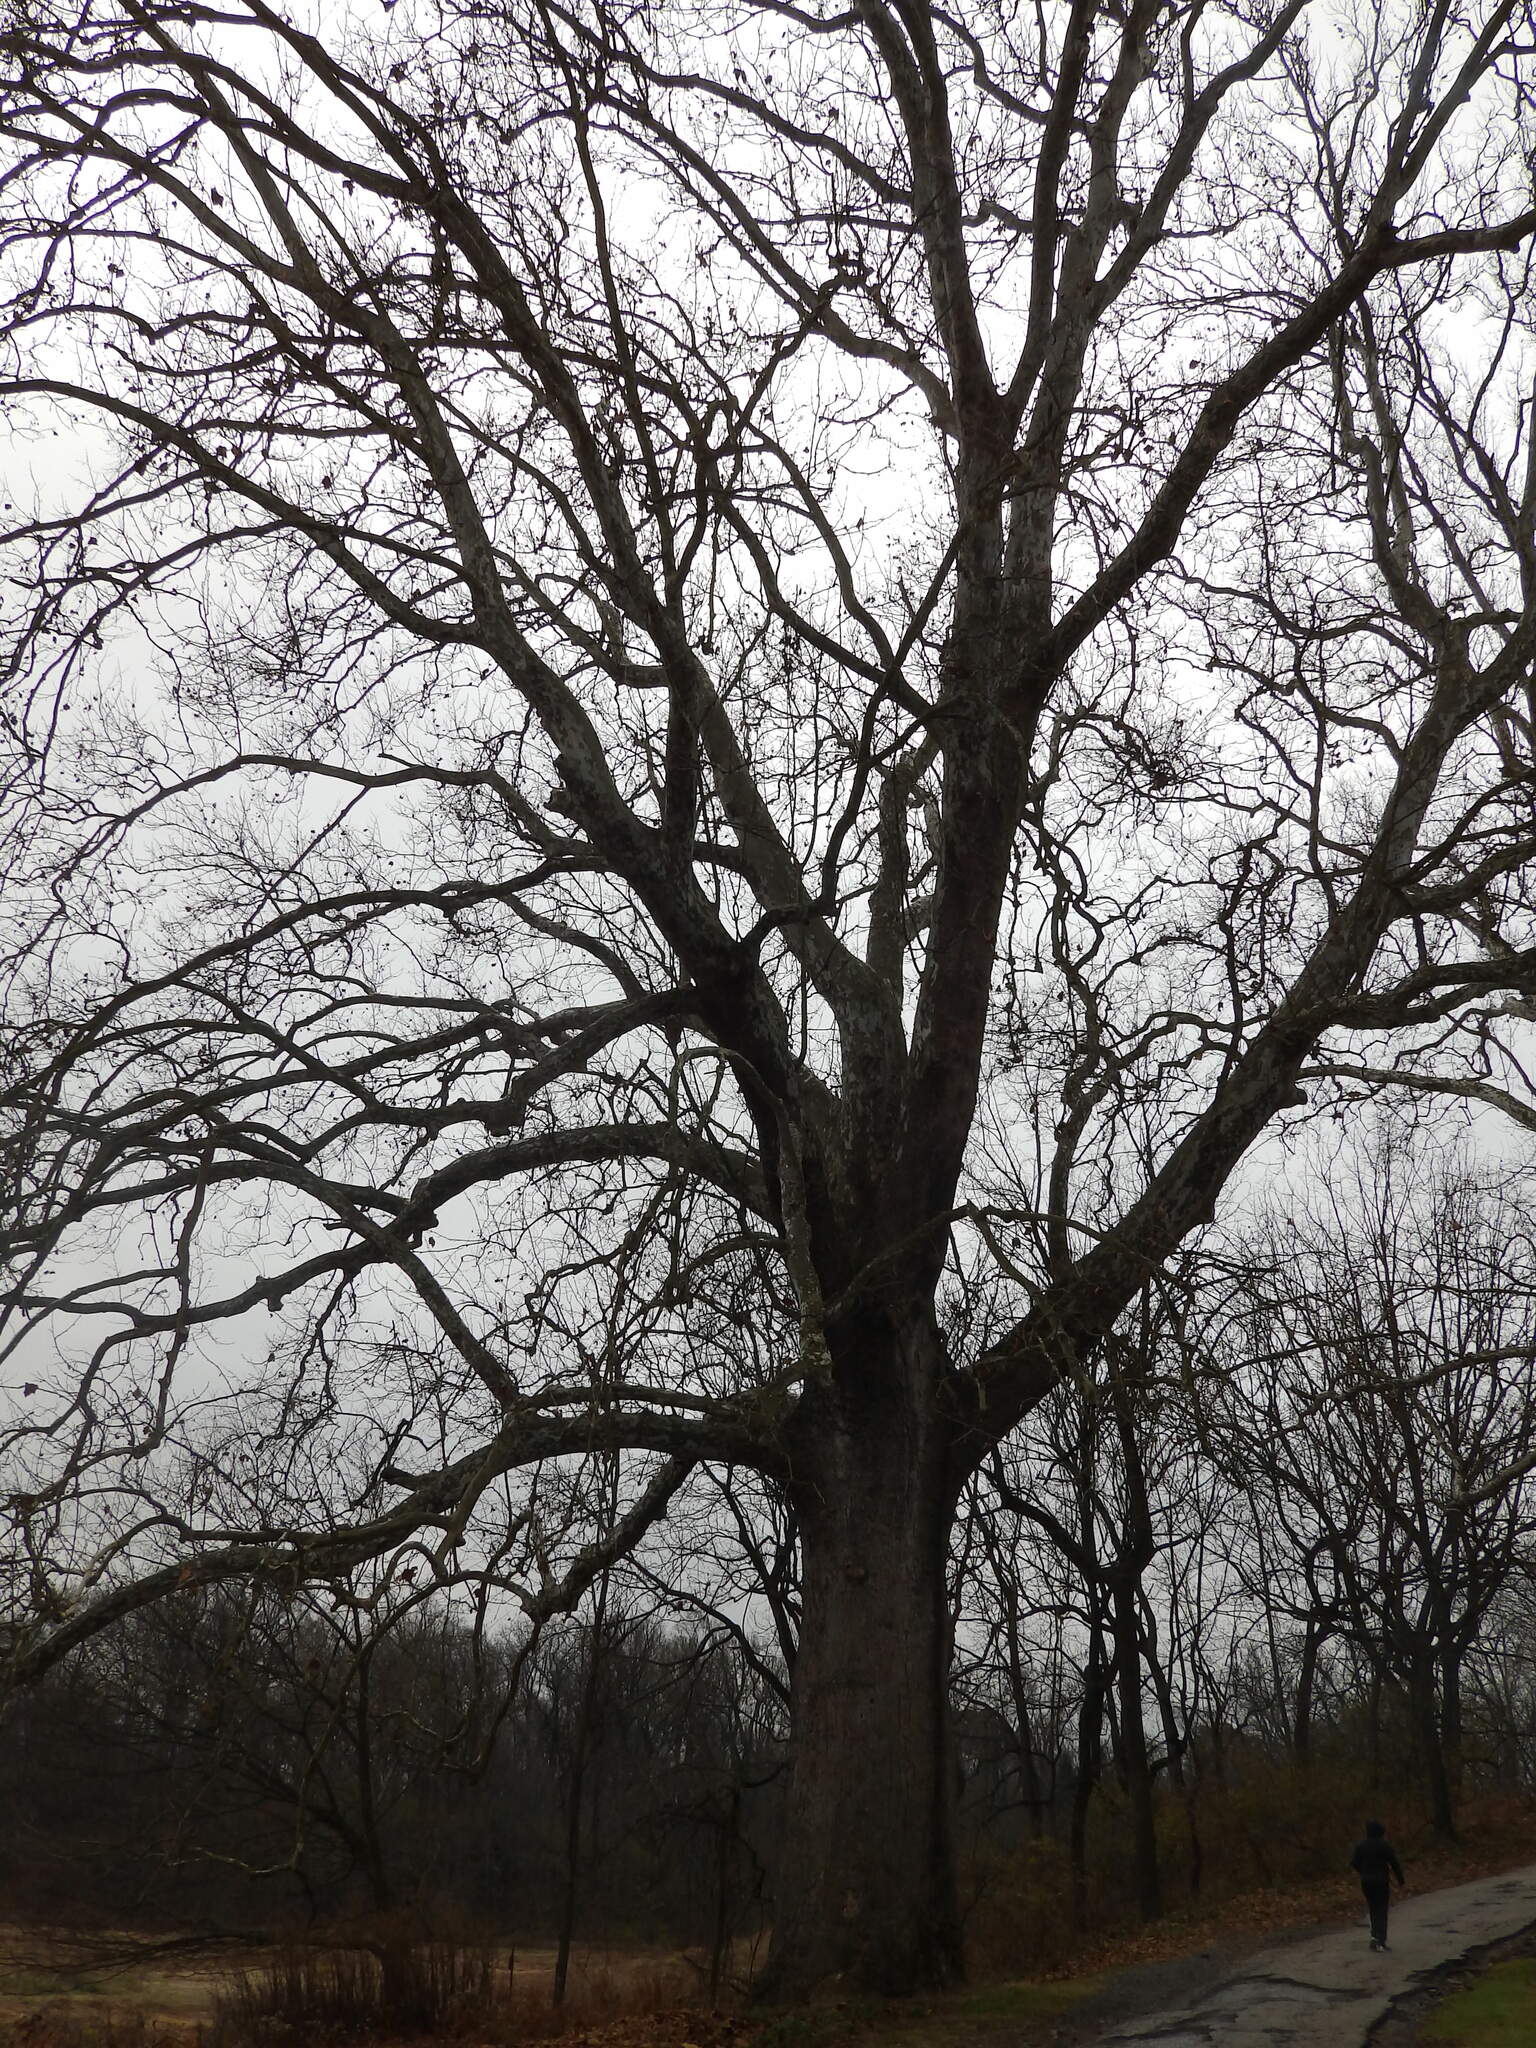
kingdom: Plantae
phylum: Tracheophyta
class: Magnoliopsida
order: Proteales
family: Platanaceae
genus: Platanus
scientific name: Platanus occidentalis
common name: American sycamore
